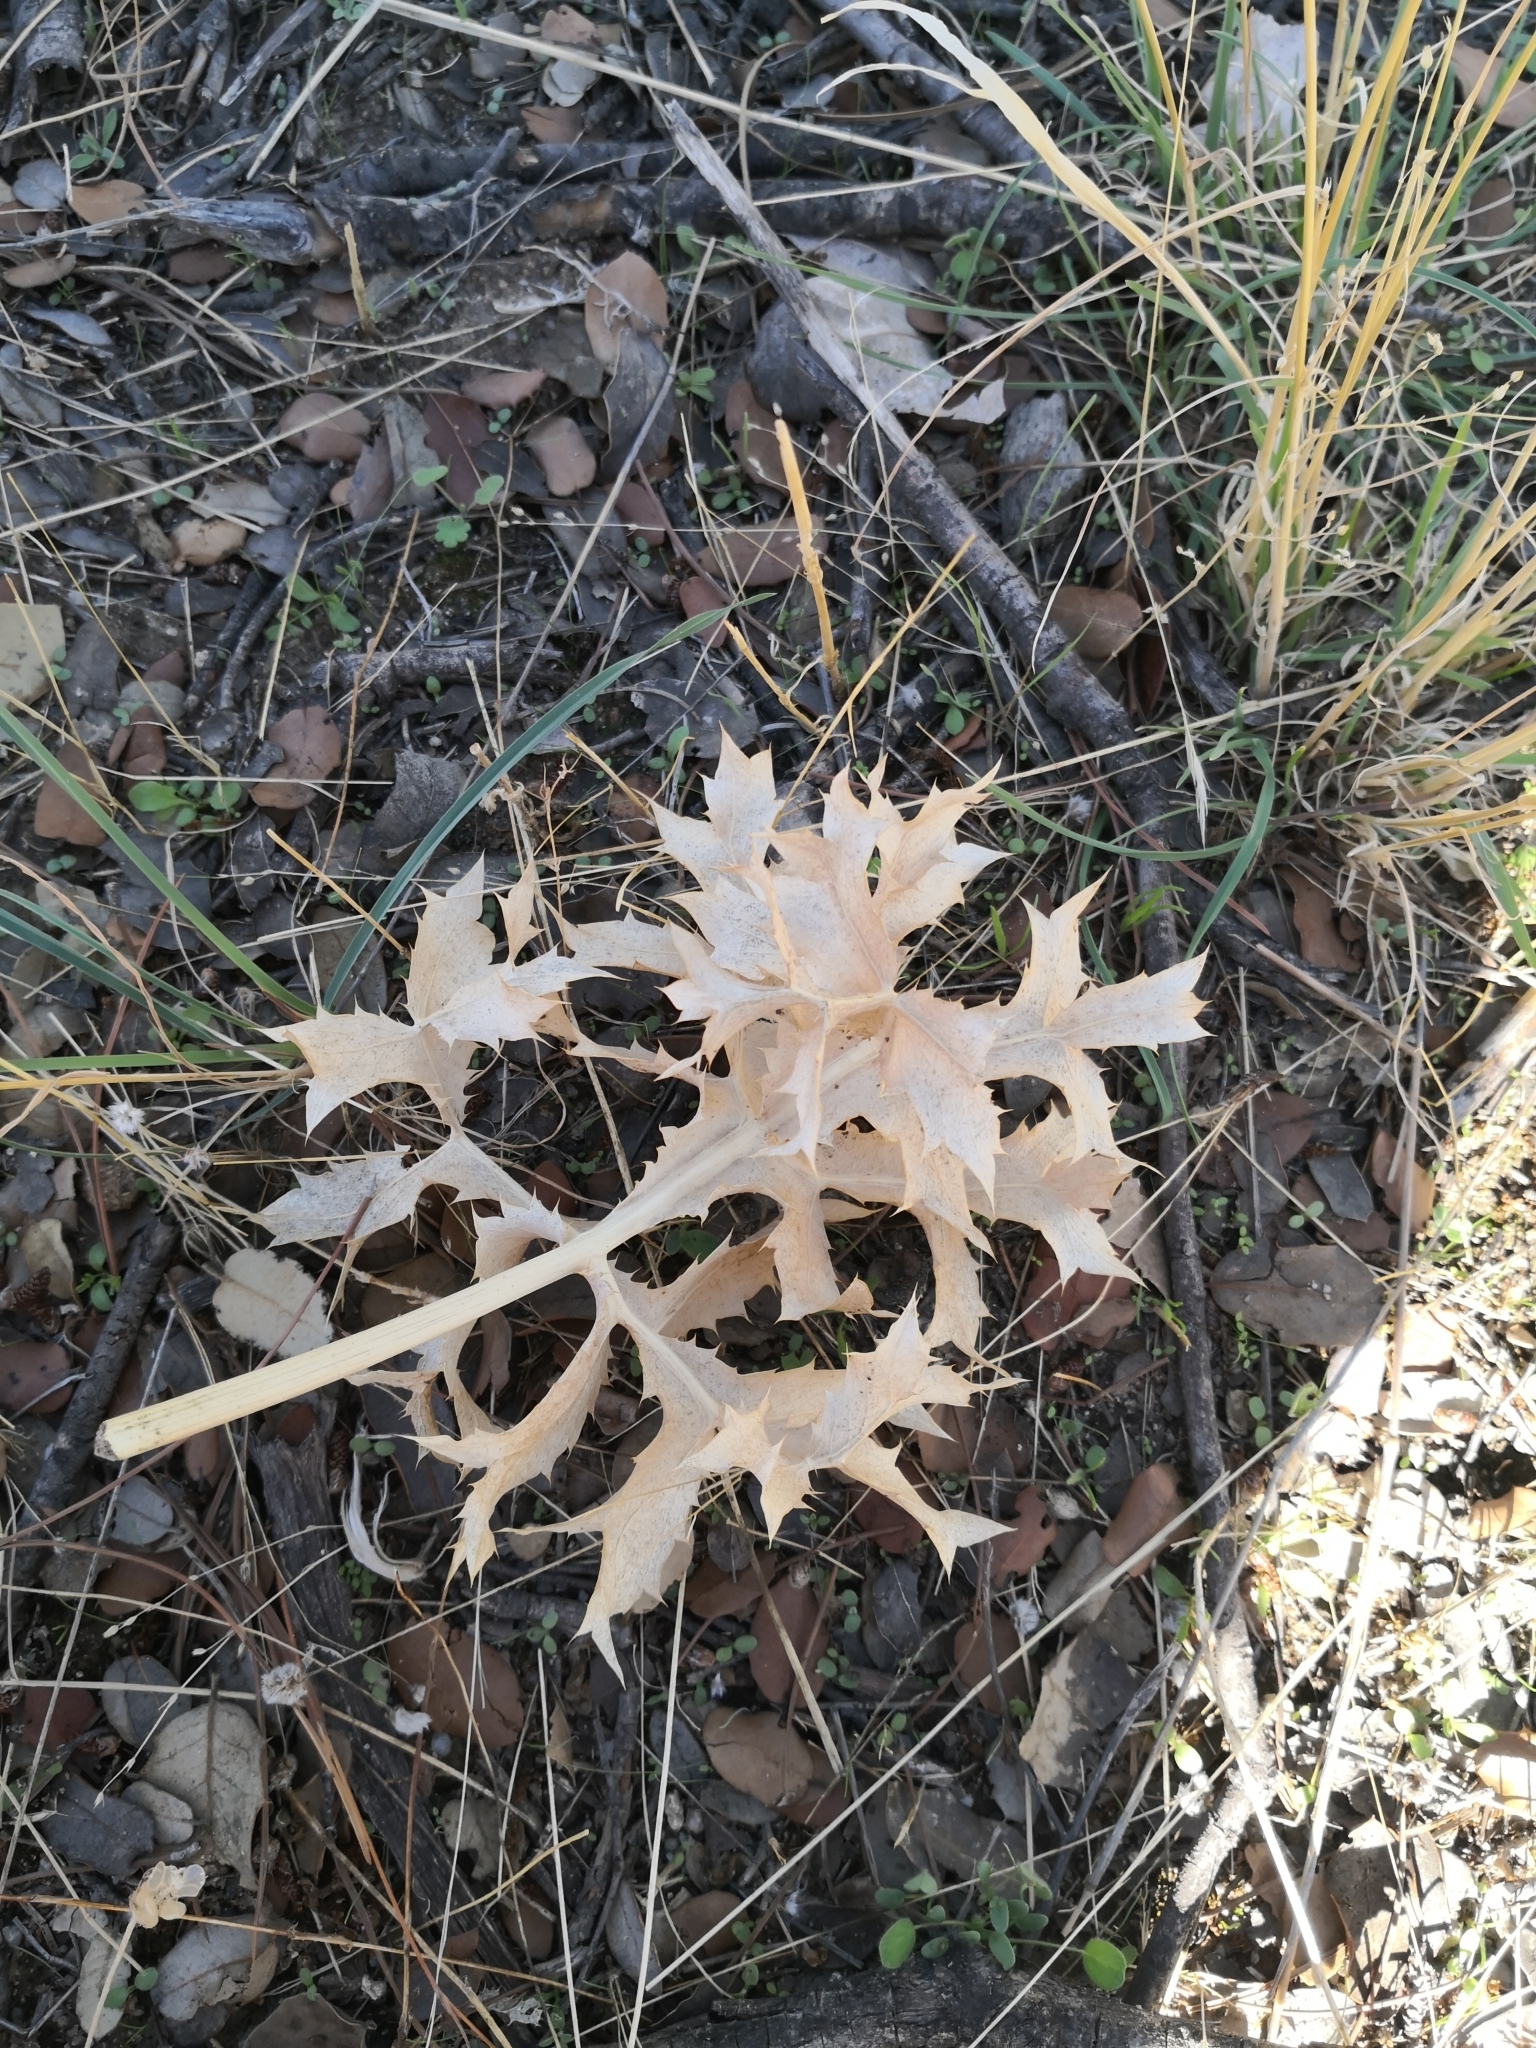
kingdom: Plantae
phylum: Tracheophyta
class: Magnoliopsida
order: Apiales
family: Apiaceae
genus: Eryngium
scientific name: Eryngium campestre
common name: Field eryngo
